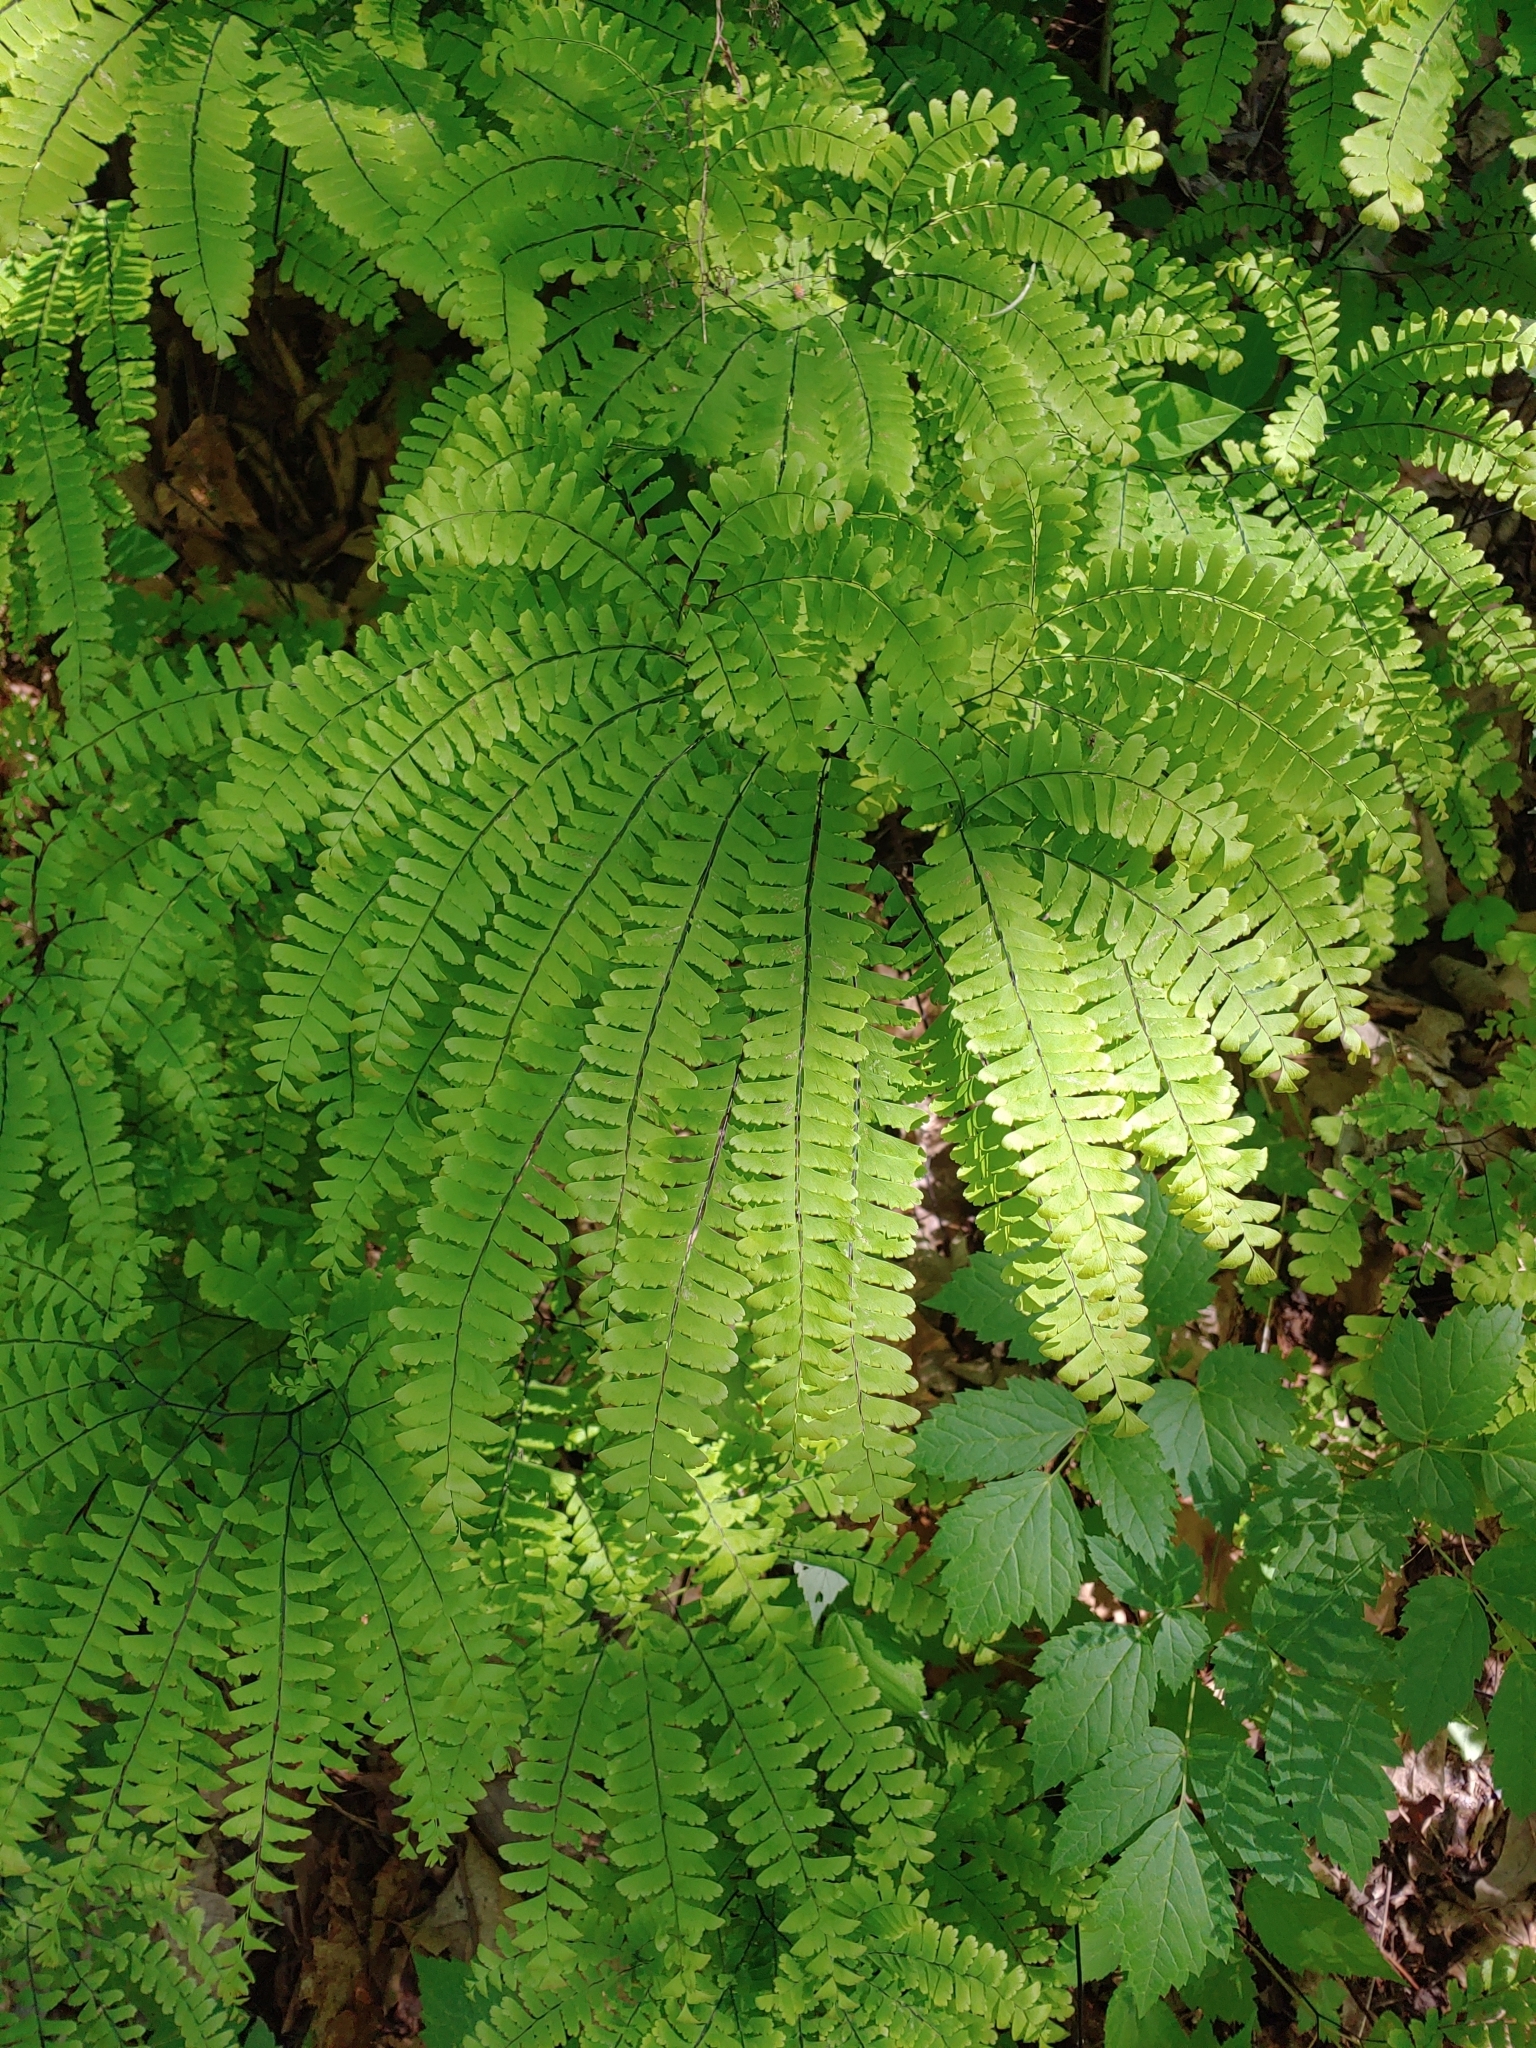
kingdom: Plantae
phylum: Tracheophyta
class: Polypodiopsida
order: Polypodiales
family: Pteridaceae
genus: Adiantum
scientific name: Adiantum pedatum
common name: Five-finger fern
